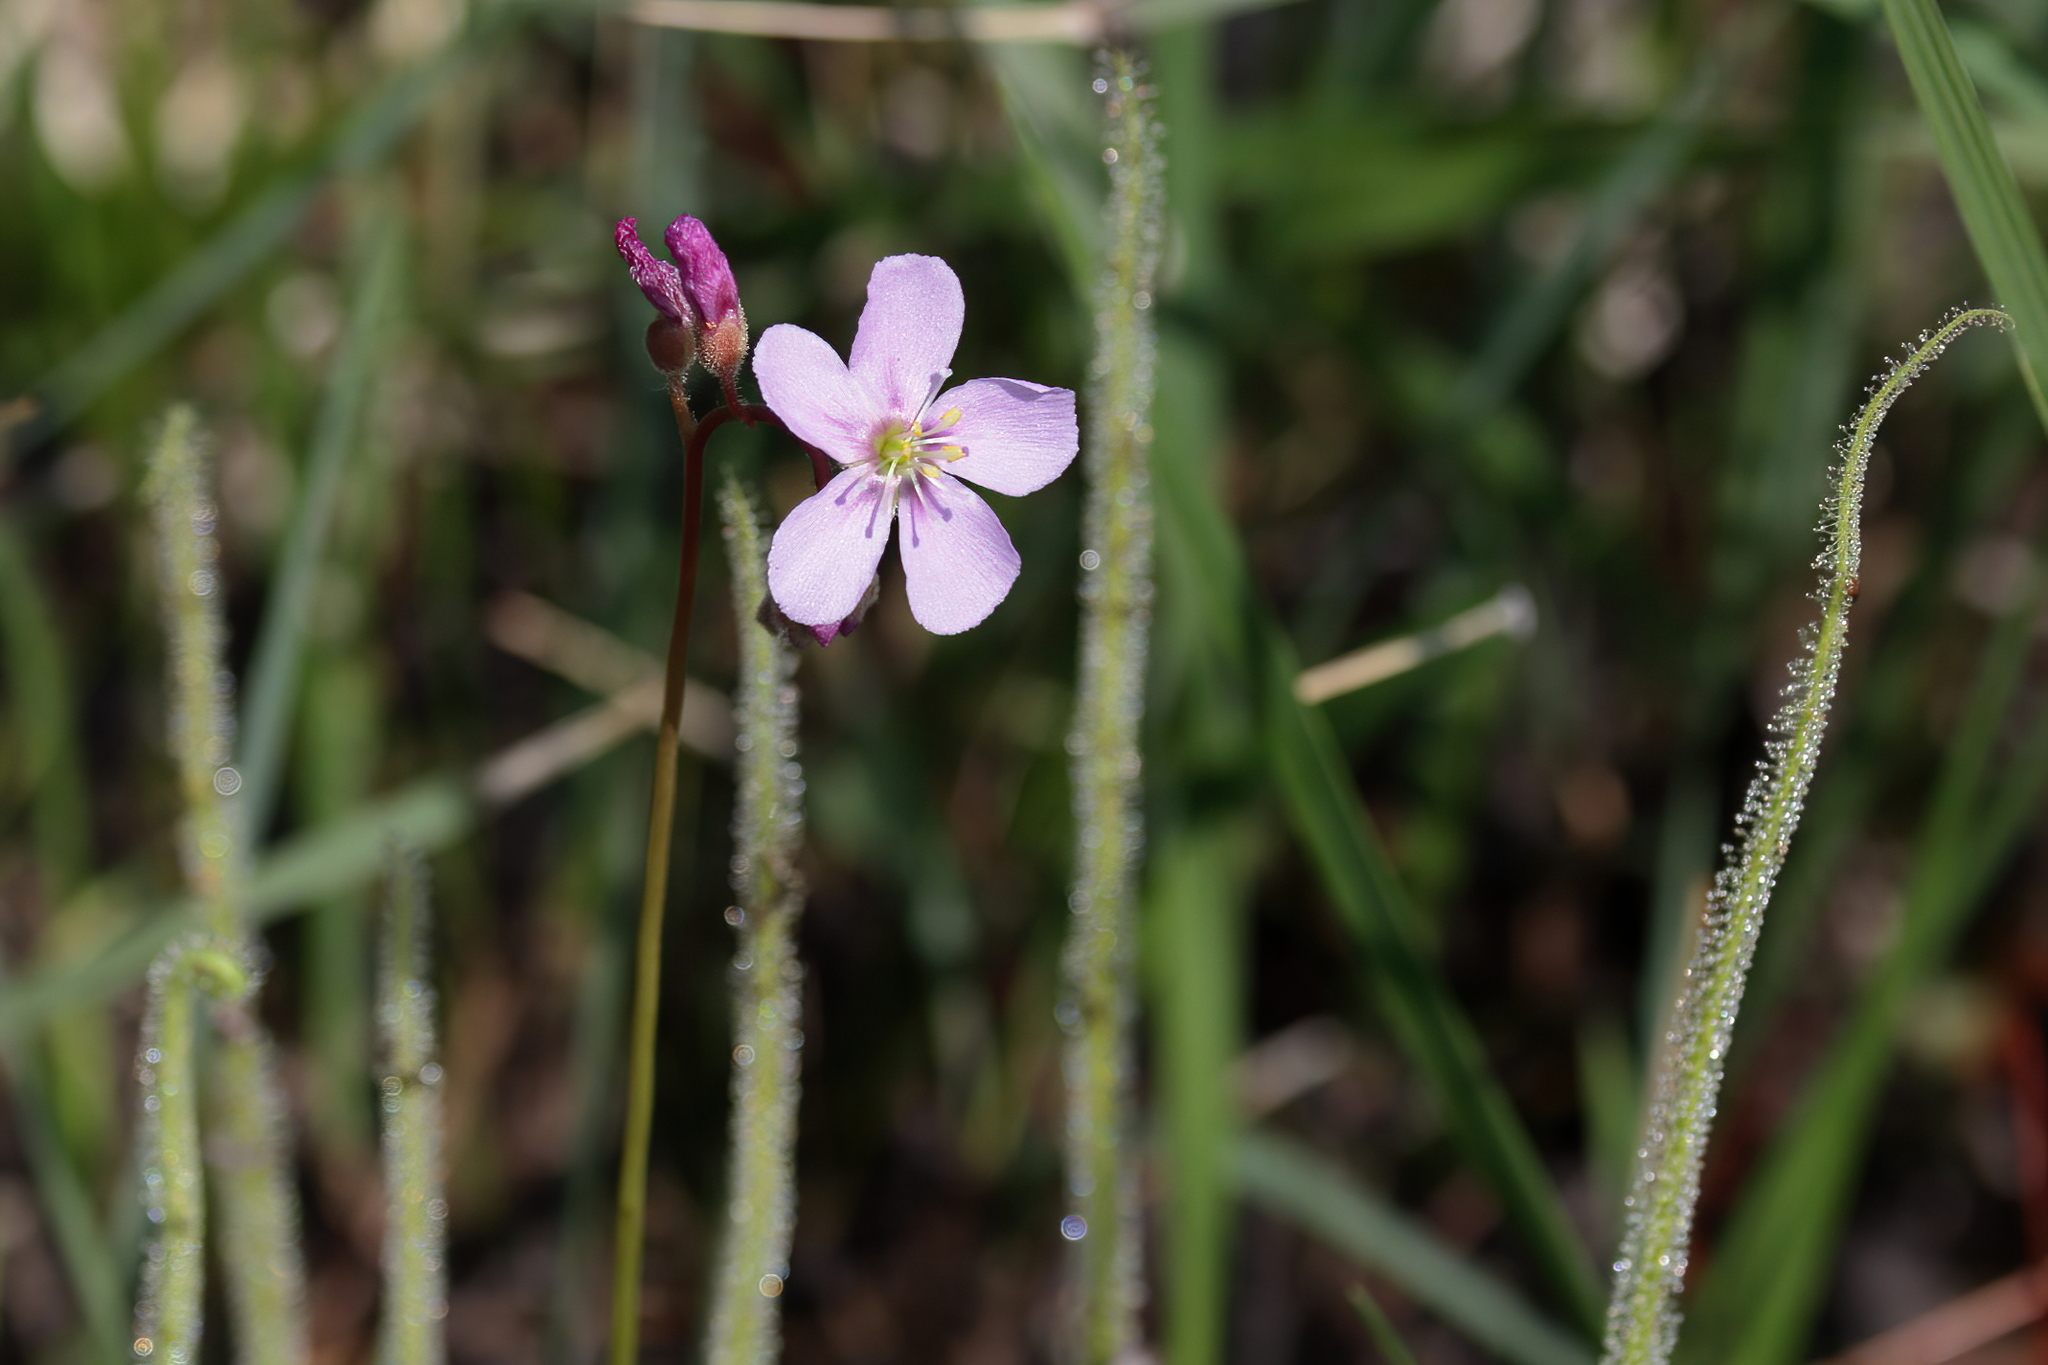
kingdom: Plantae
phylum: Tracheophyta
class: Magnoliopsida
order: Caryophyllales
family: Droseraceae
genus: Drosera
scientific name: Drosera filiformis
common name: Dew-thread
